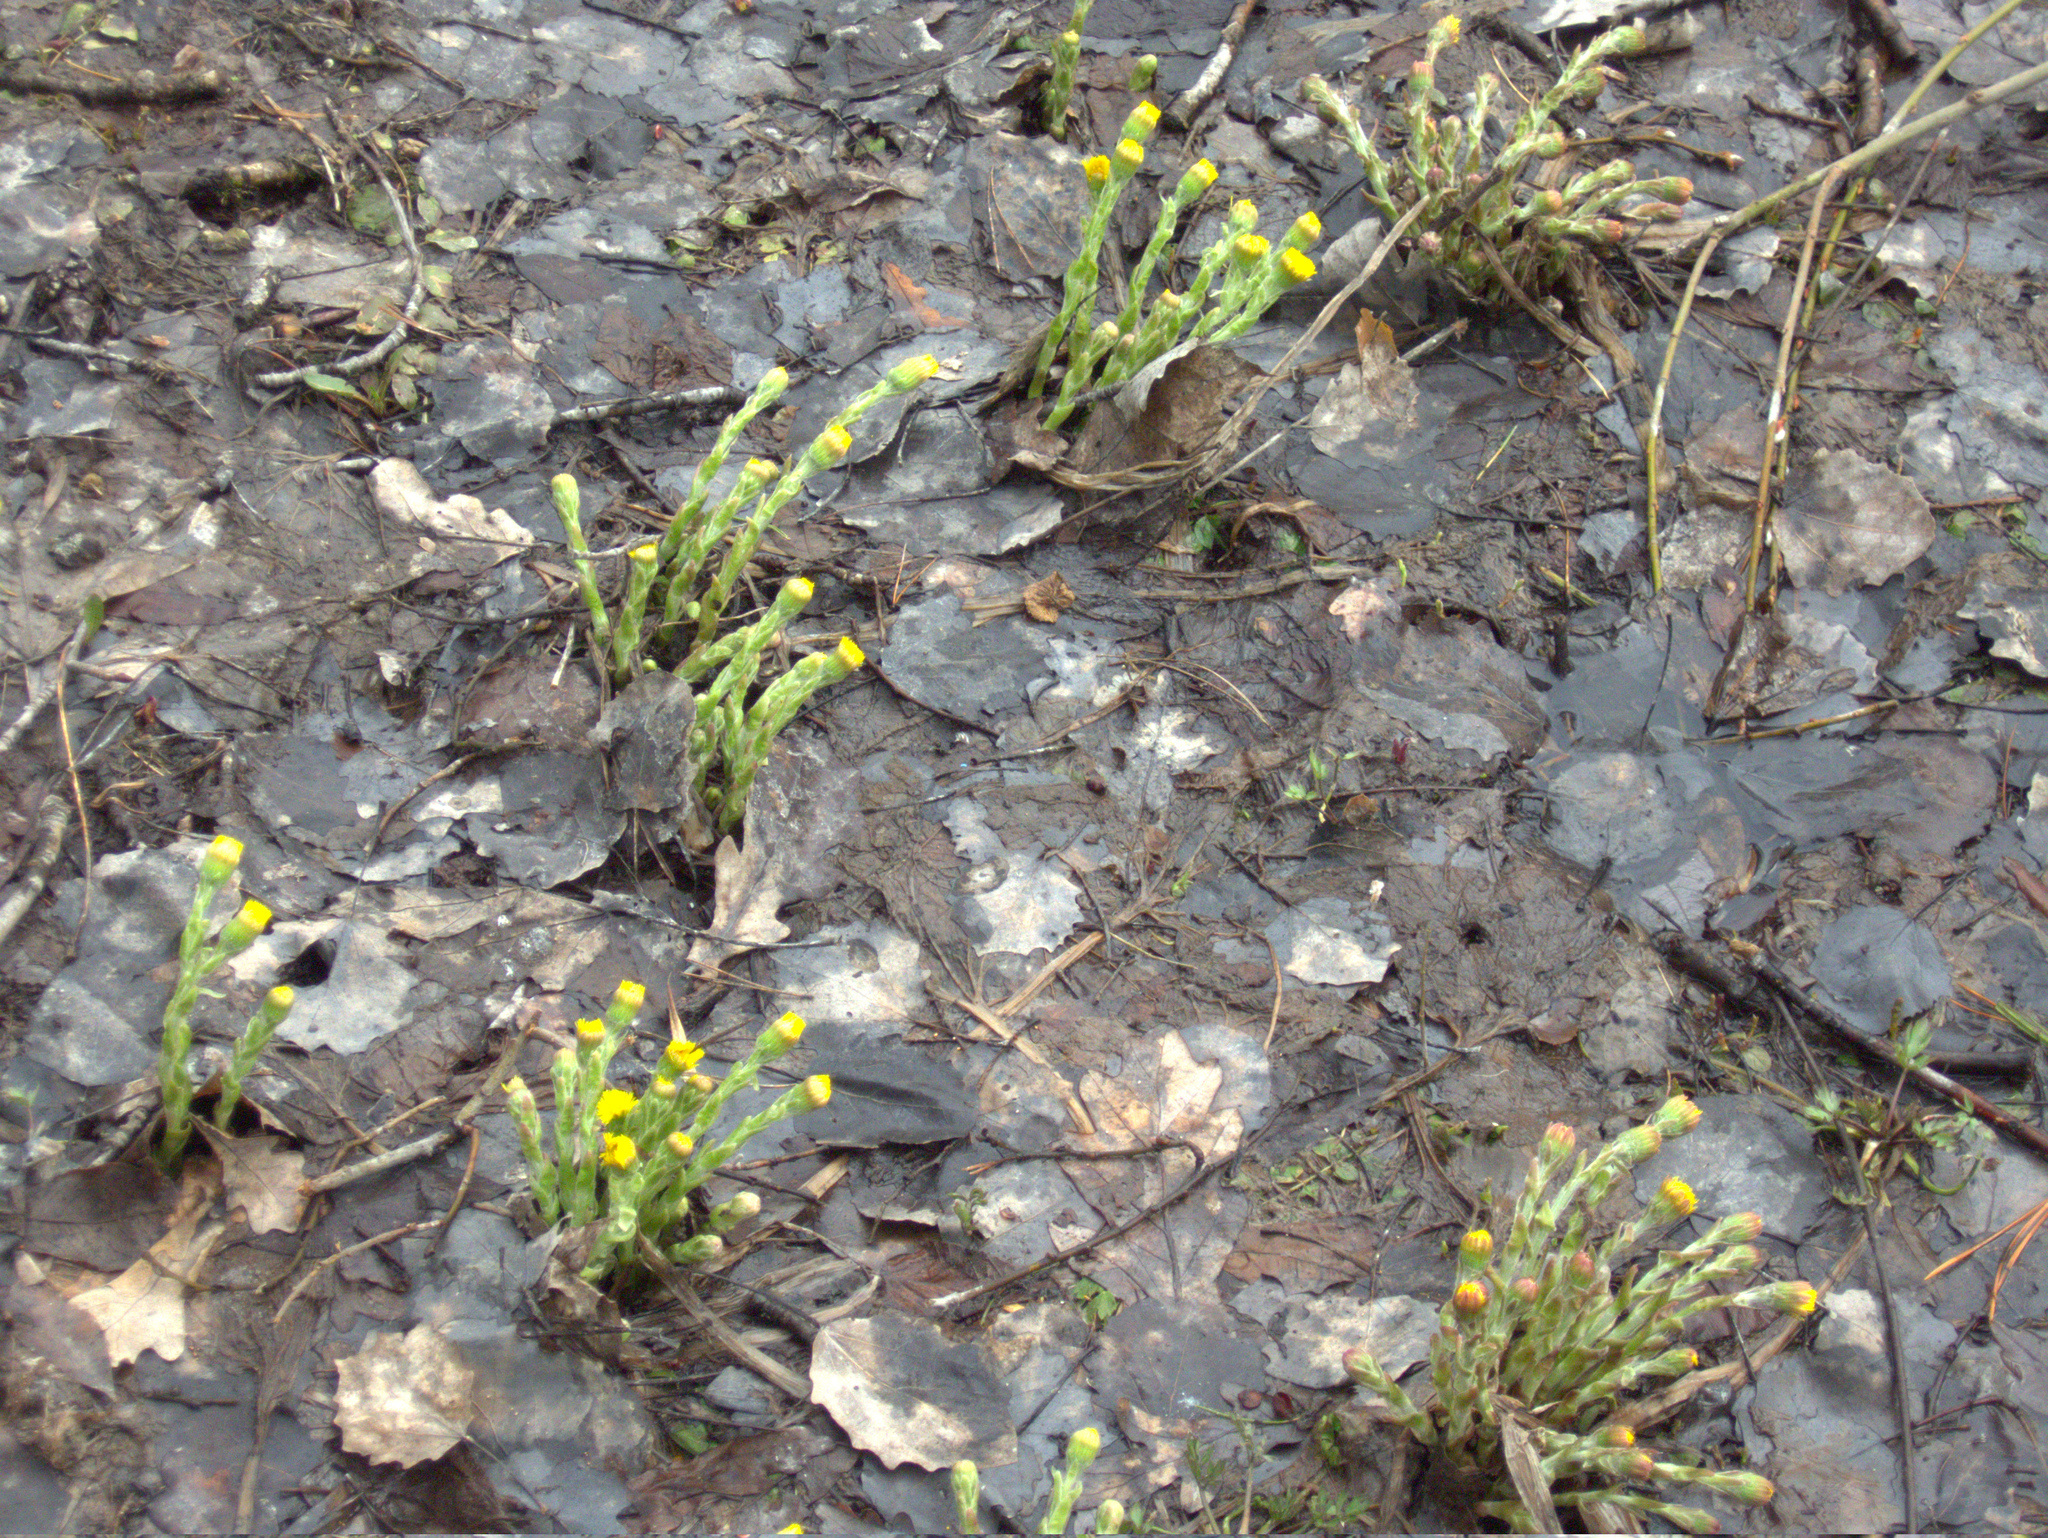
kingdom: Plantae
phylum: Tracheophyta
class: Magnoliopsida
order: Asterales
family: Asteraceae
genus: Tussilago
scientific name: Tussilago farfara
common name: Coltsfoot
